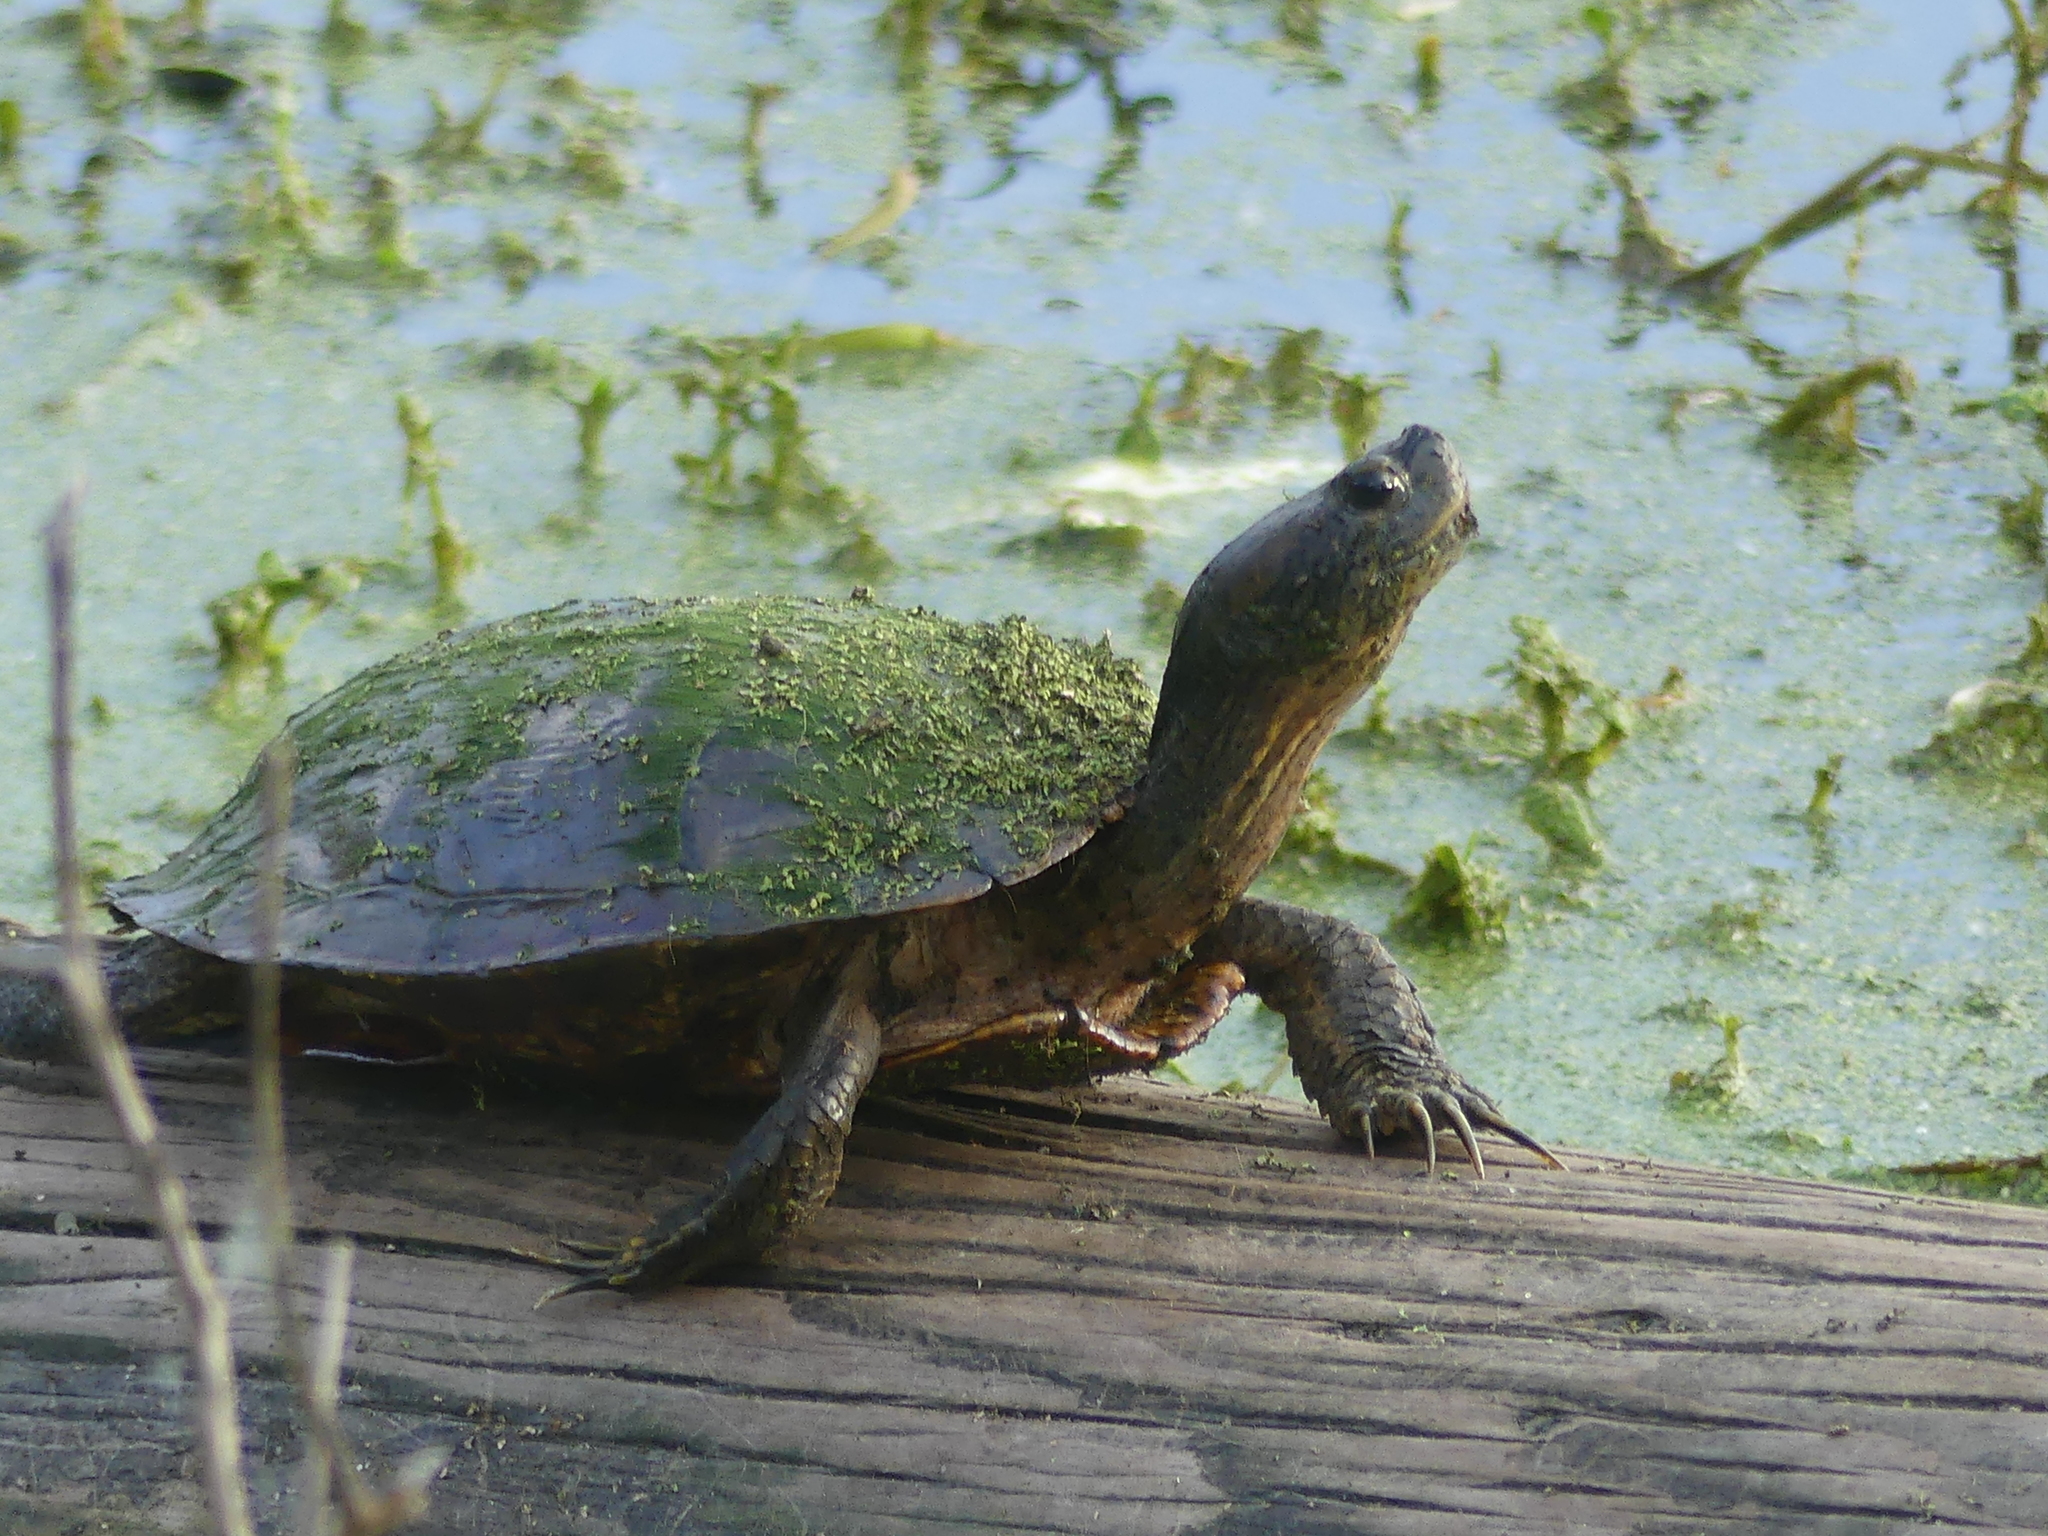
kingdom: Animalia
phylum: Chordata
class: Testudines
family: Emydidae
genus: Trachemys
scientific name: Trachemys scripta
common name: Slider
